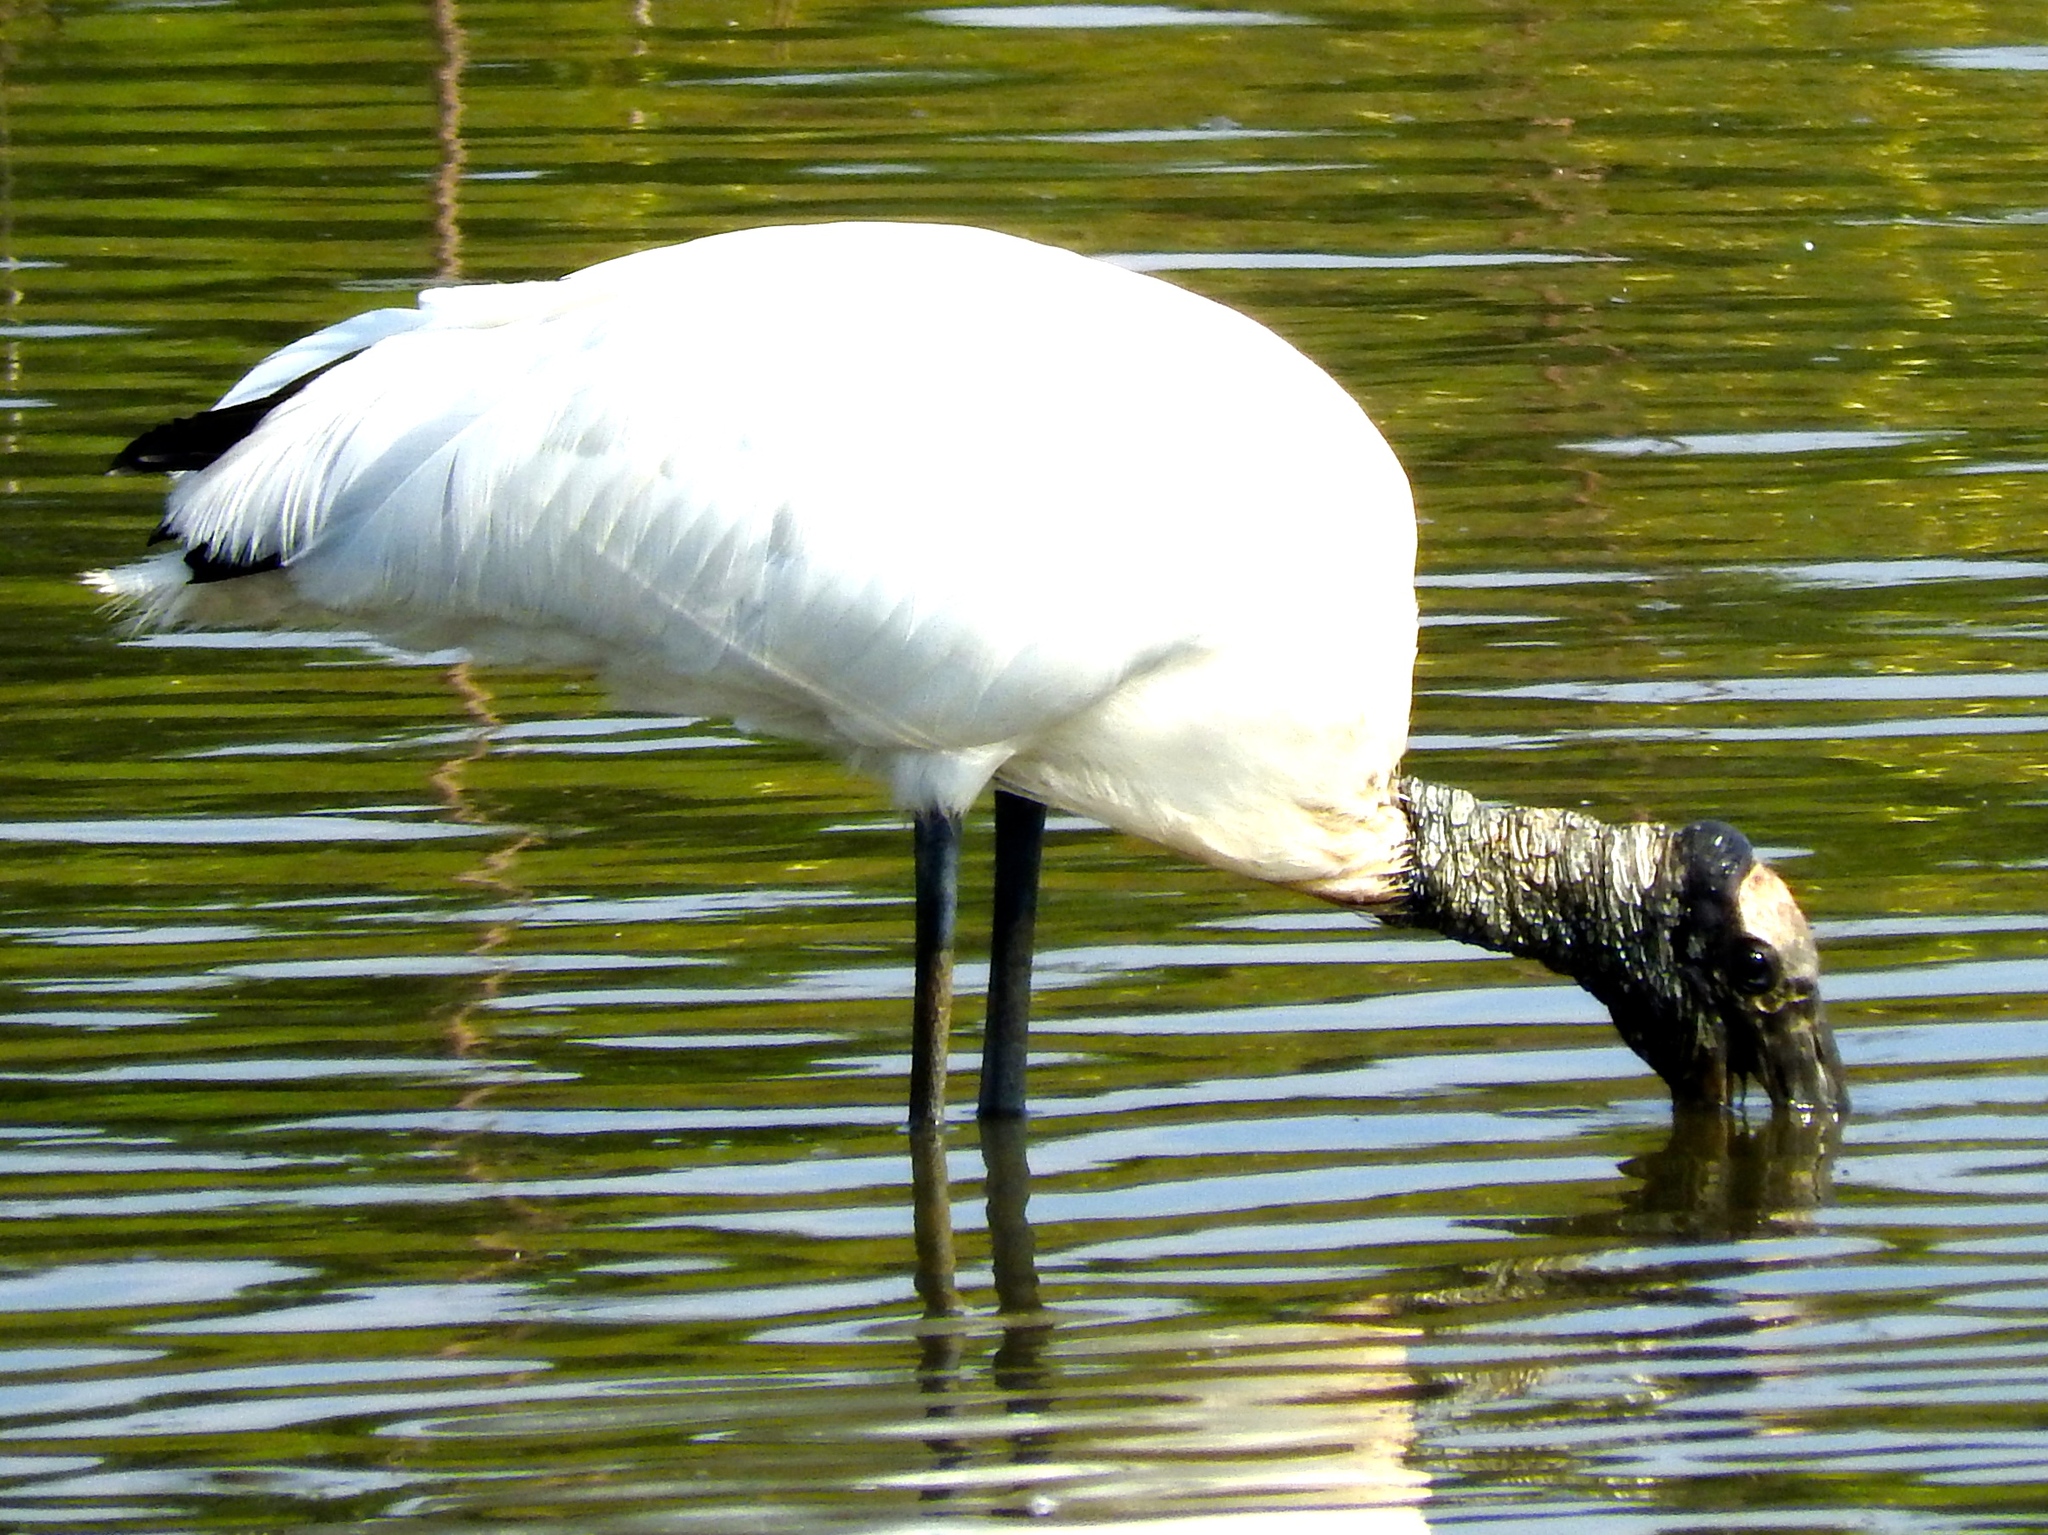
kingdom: Animalia
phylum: Chordata
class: Aves
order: Ciconiiformes
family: Ciconiidae
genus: Mycteria
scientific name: Mycteria americana
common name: Wood stork
